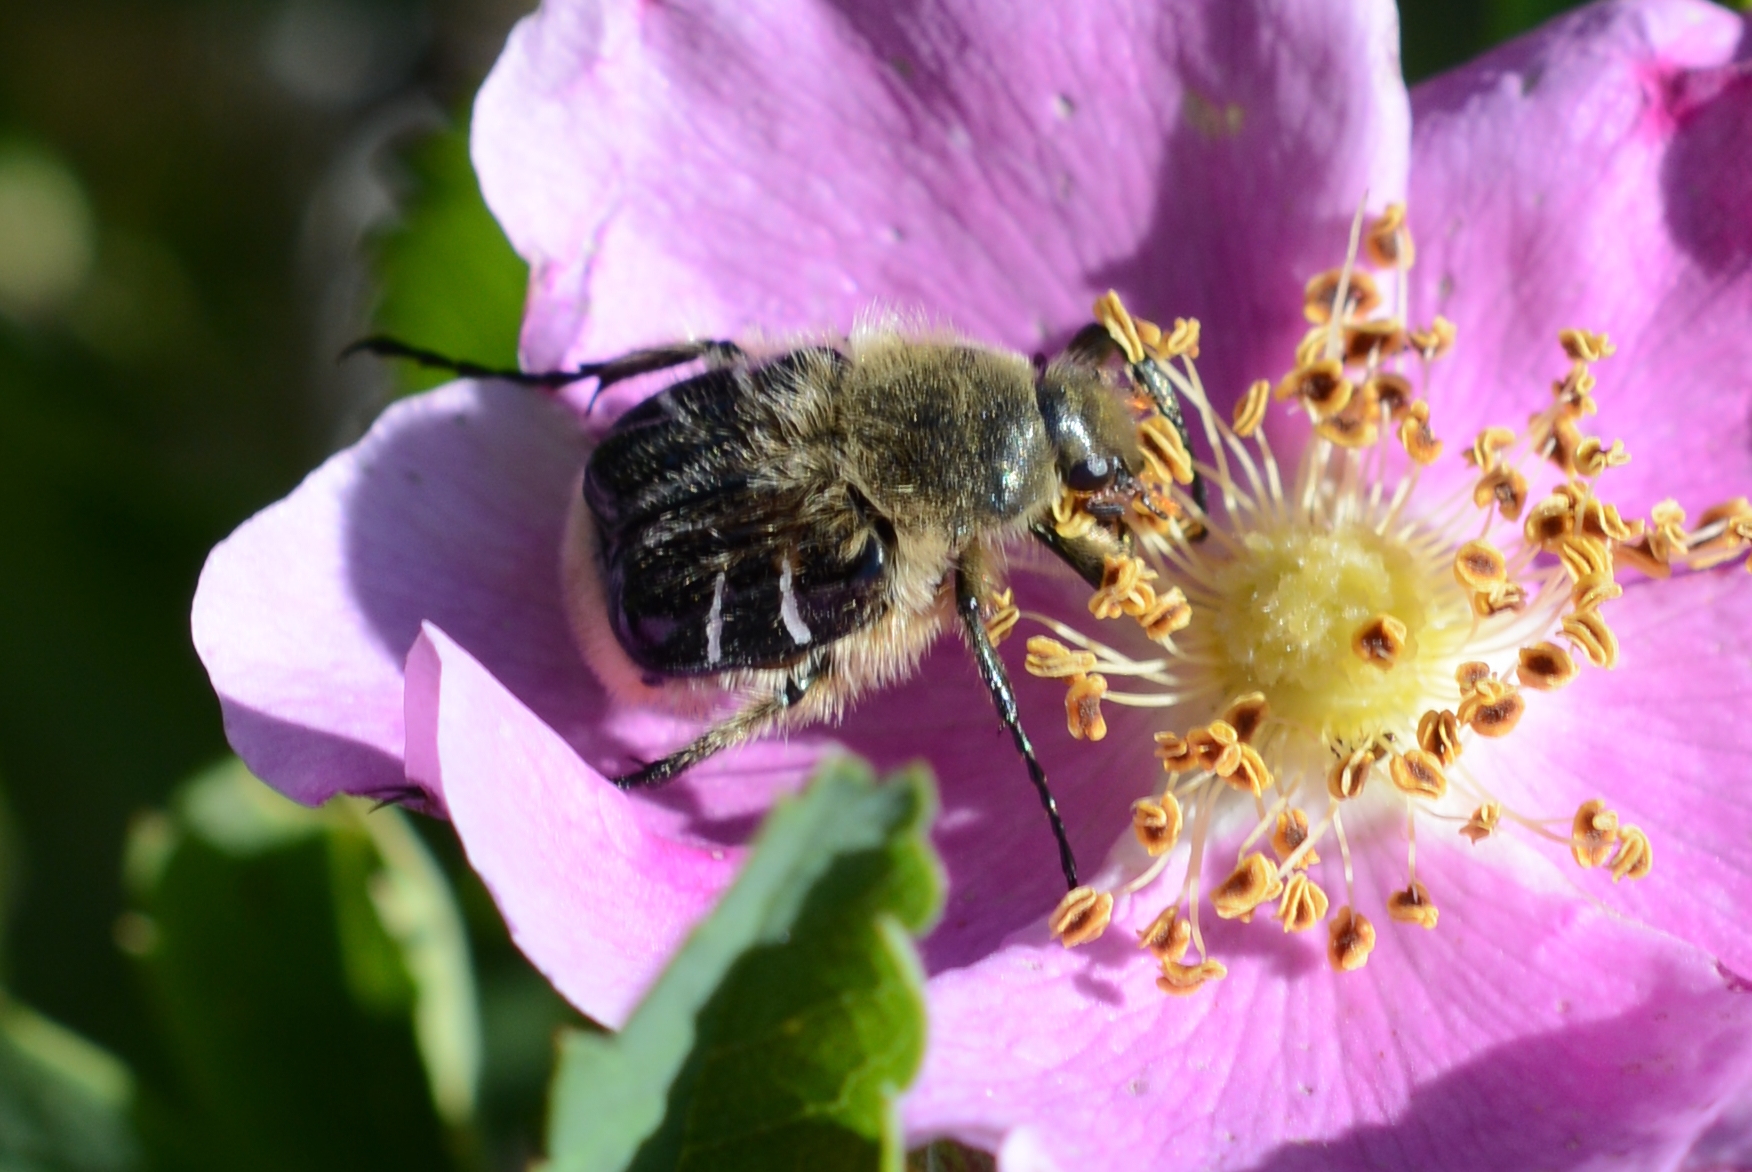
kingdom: Animalia
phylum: Arthropoda
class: Insecta
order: Coleoptera
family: Scarabaeidae
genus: Trichiotinus
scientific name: Trichiotinus assimilis
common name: Bee-mimic beetle
